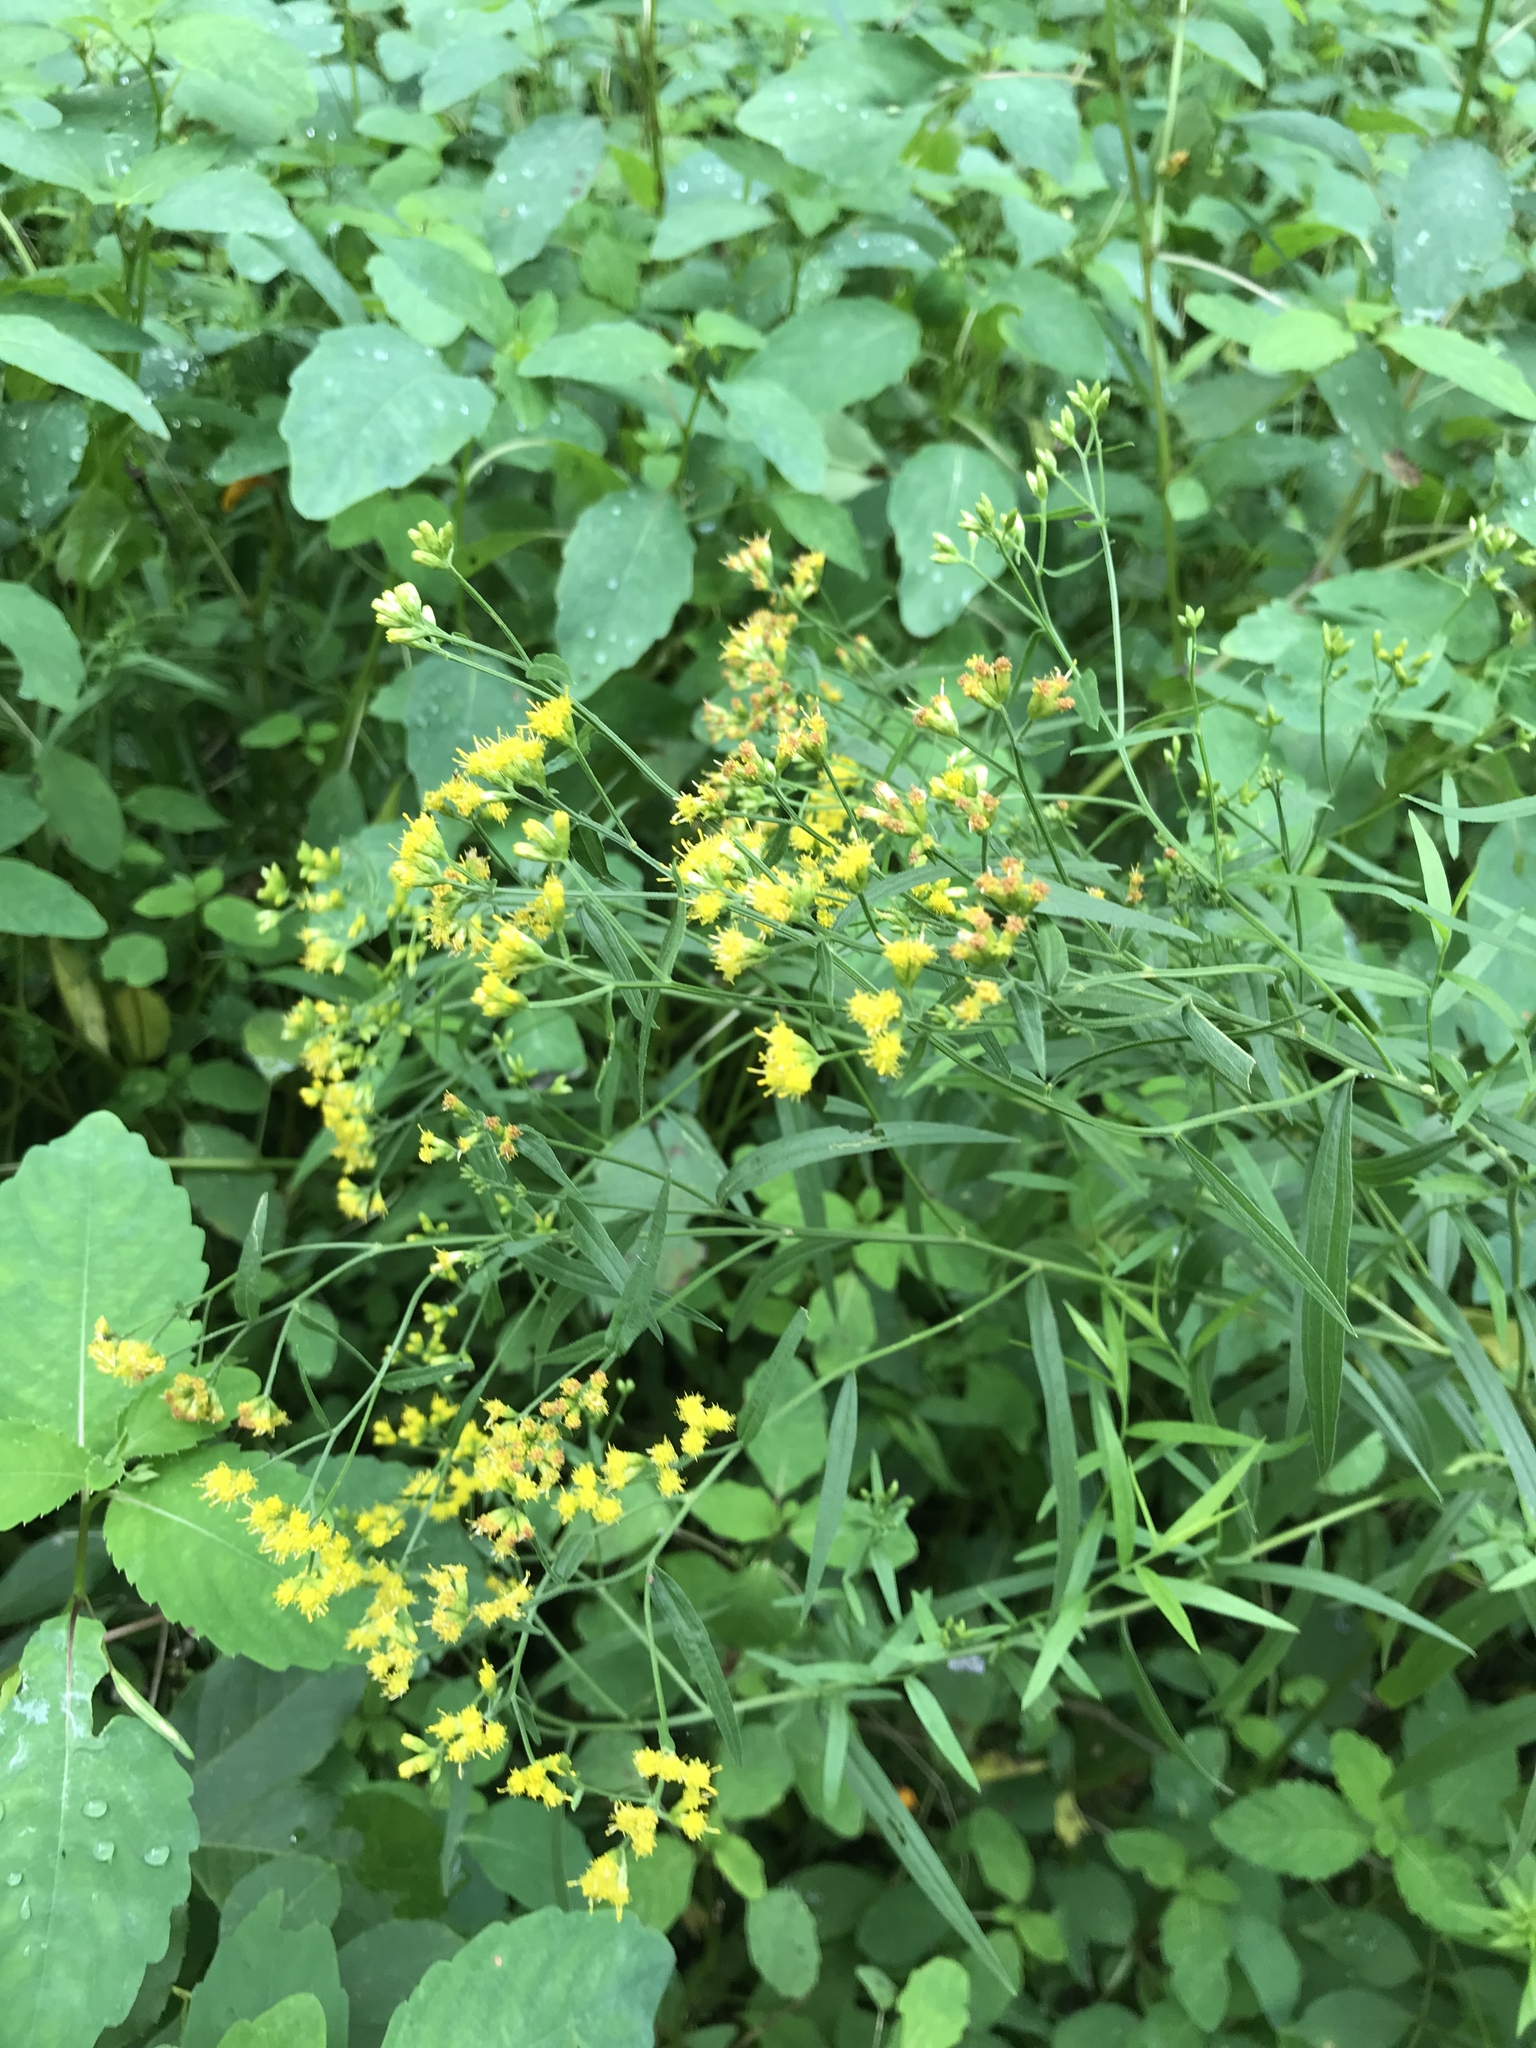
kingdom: Plantae
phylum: Tracheophyta
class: Magnoliopsida
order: Asterales
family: Asteraceae
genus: Euthamia
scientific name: Euthamia graminifolia
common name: Common goldentop
